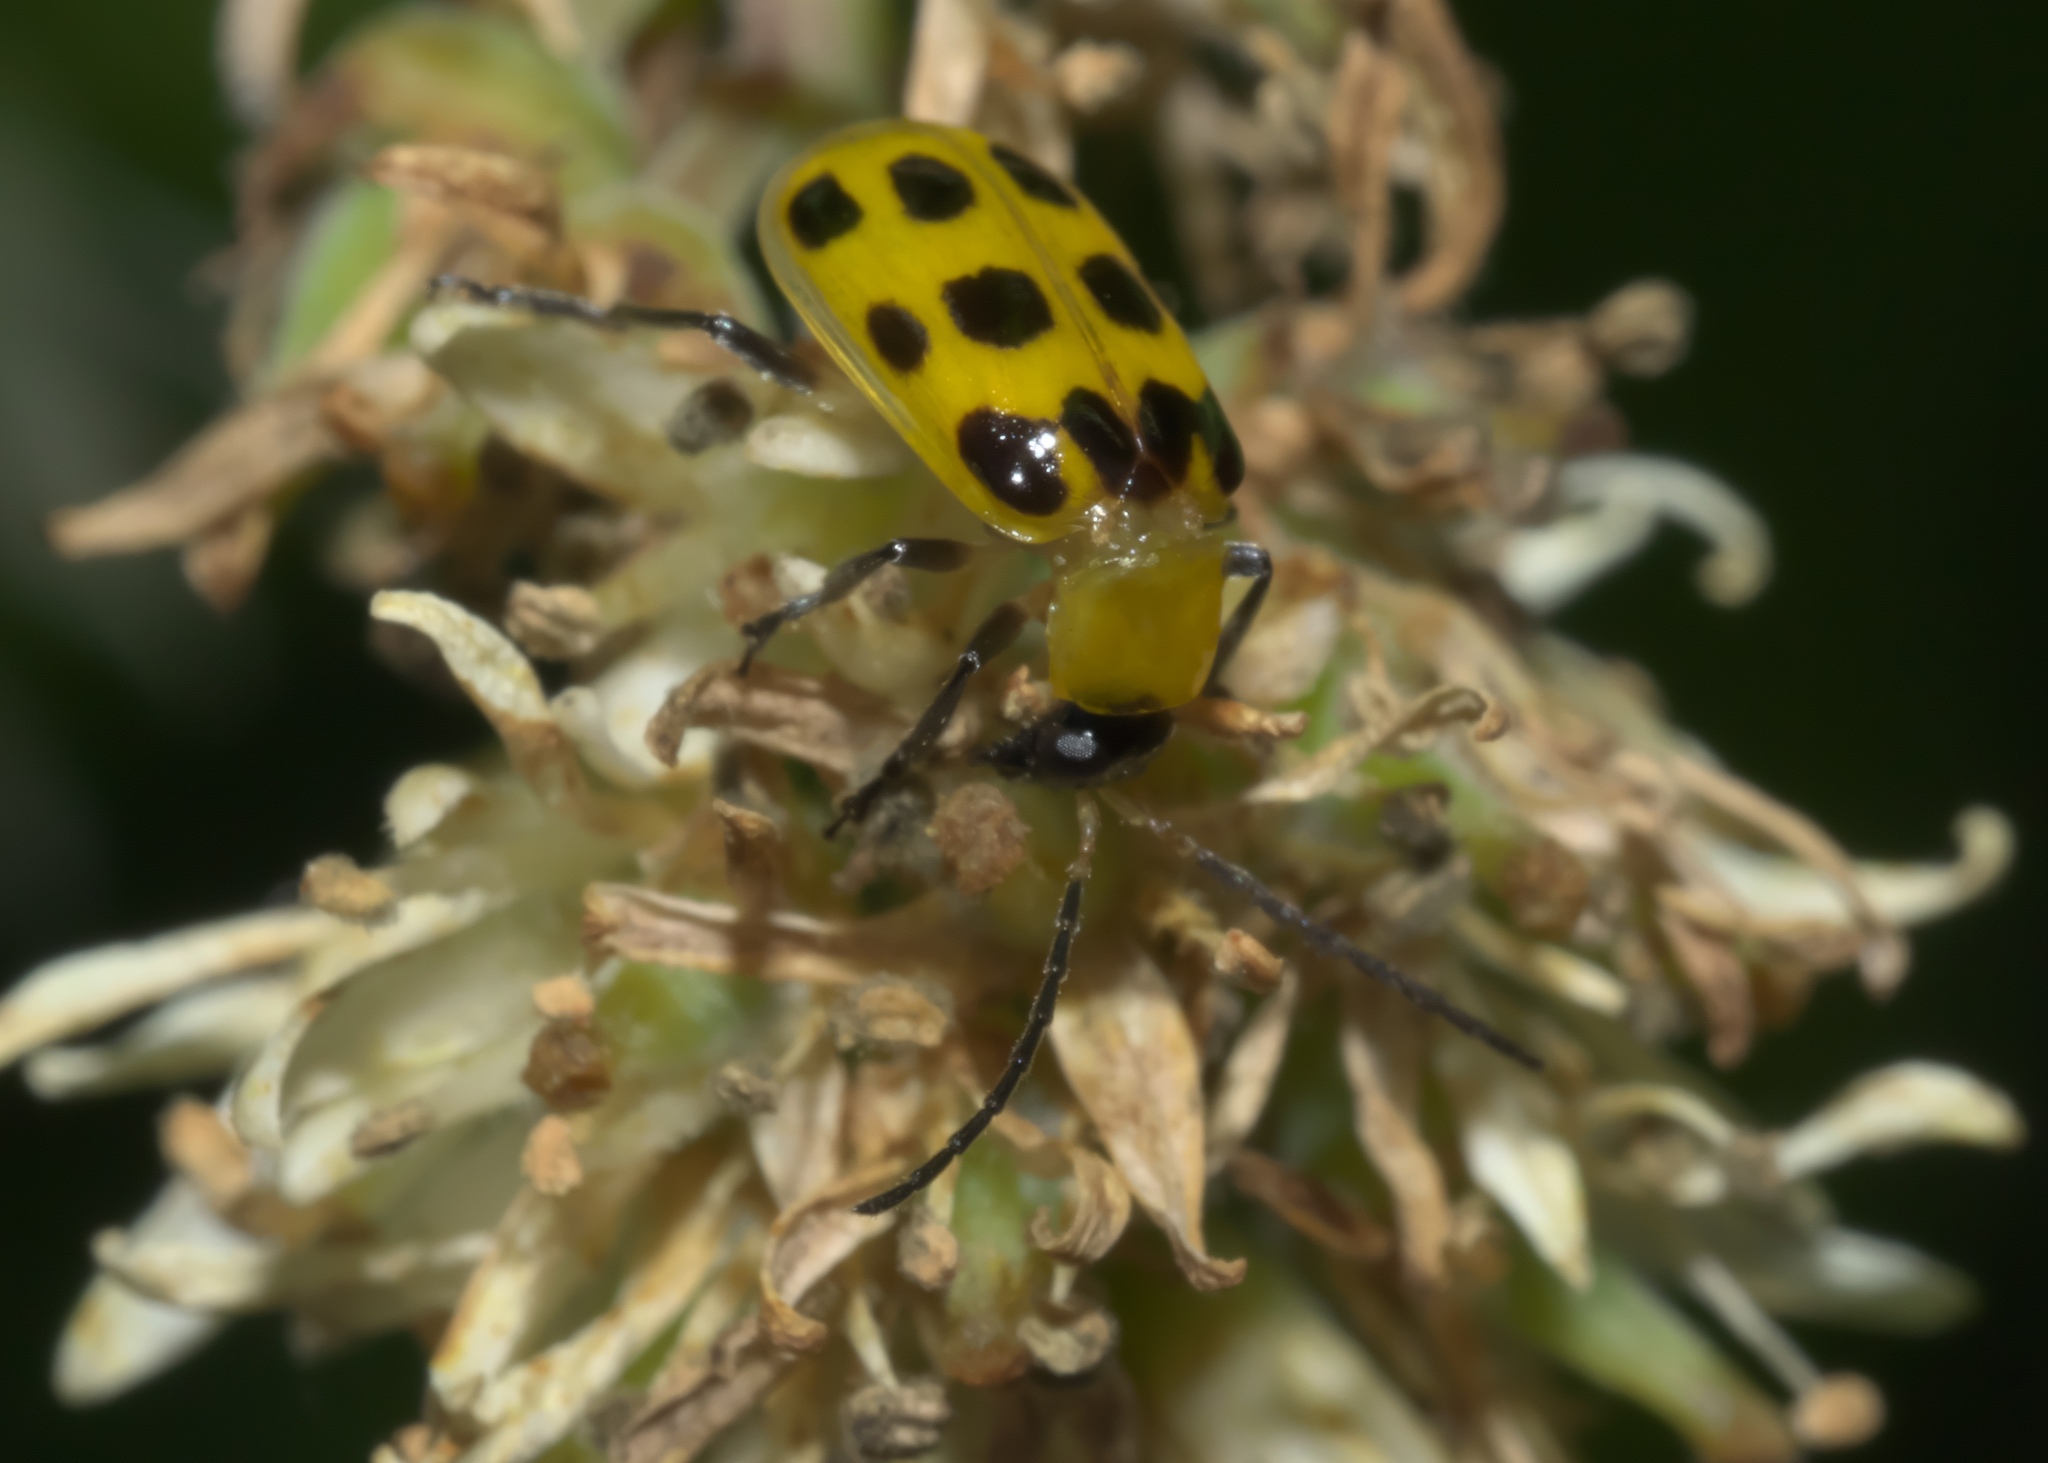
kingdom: Animalia
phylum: Arthropoda
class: Insecta
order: Coleoptera
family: Chrysomelidae
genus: Diabrotica
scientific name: Diabrotica undecimpunctata
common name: Spotted cucumber beetle
